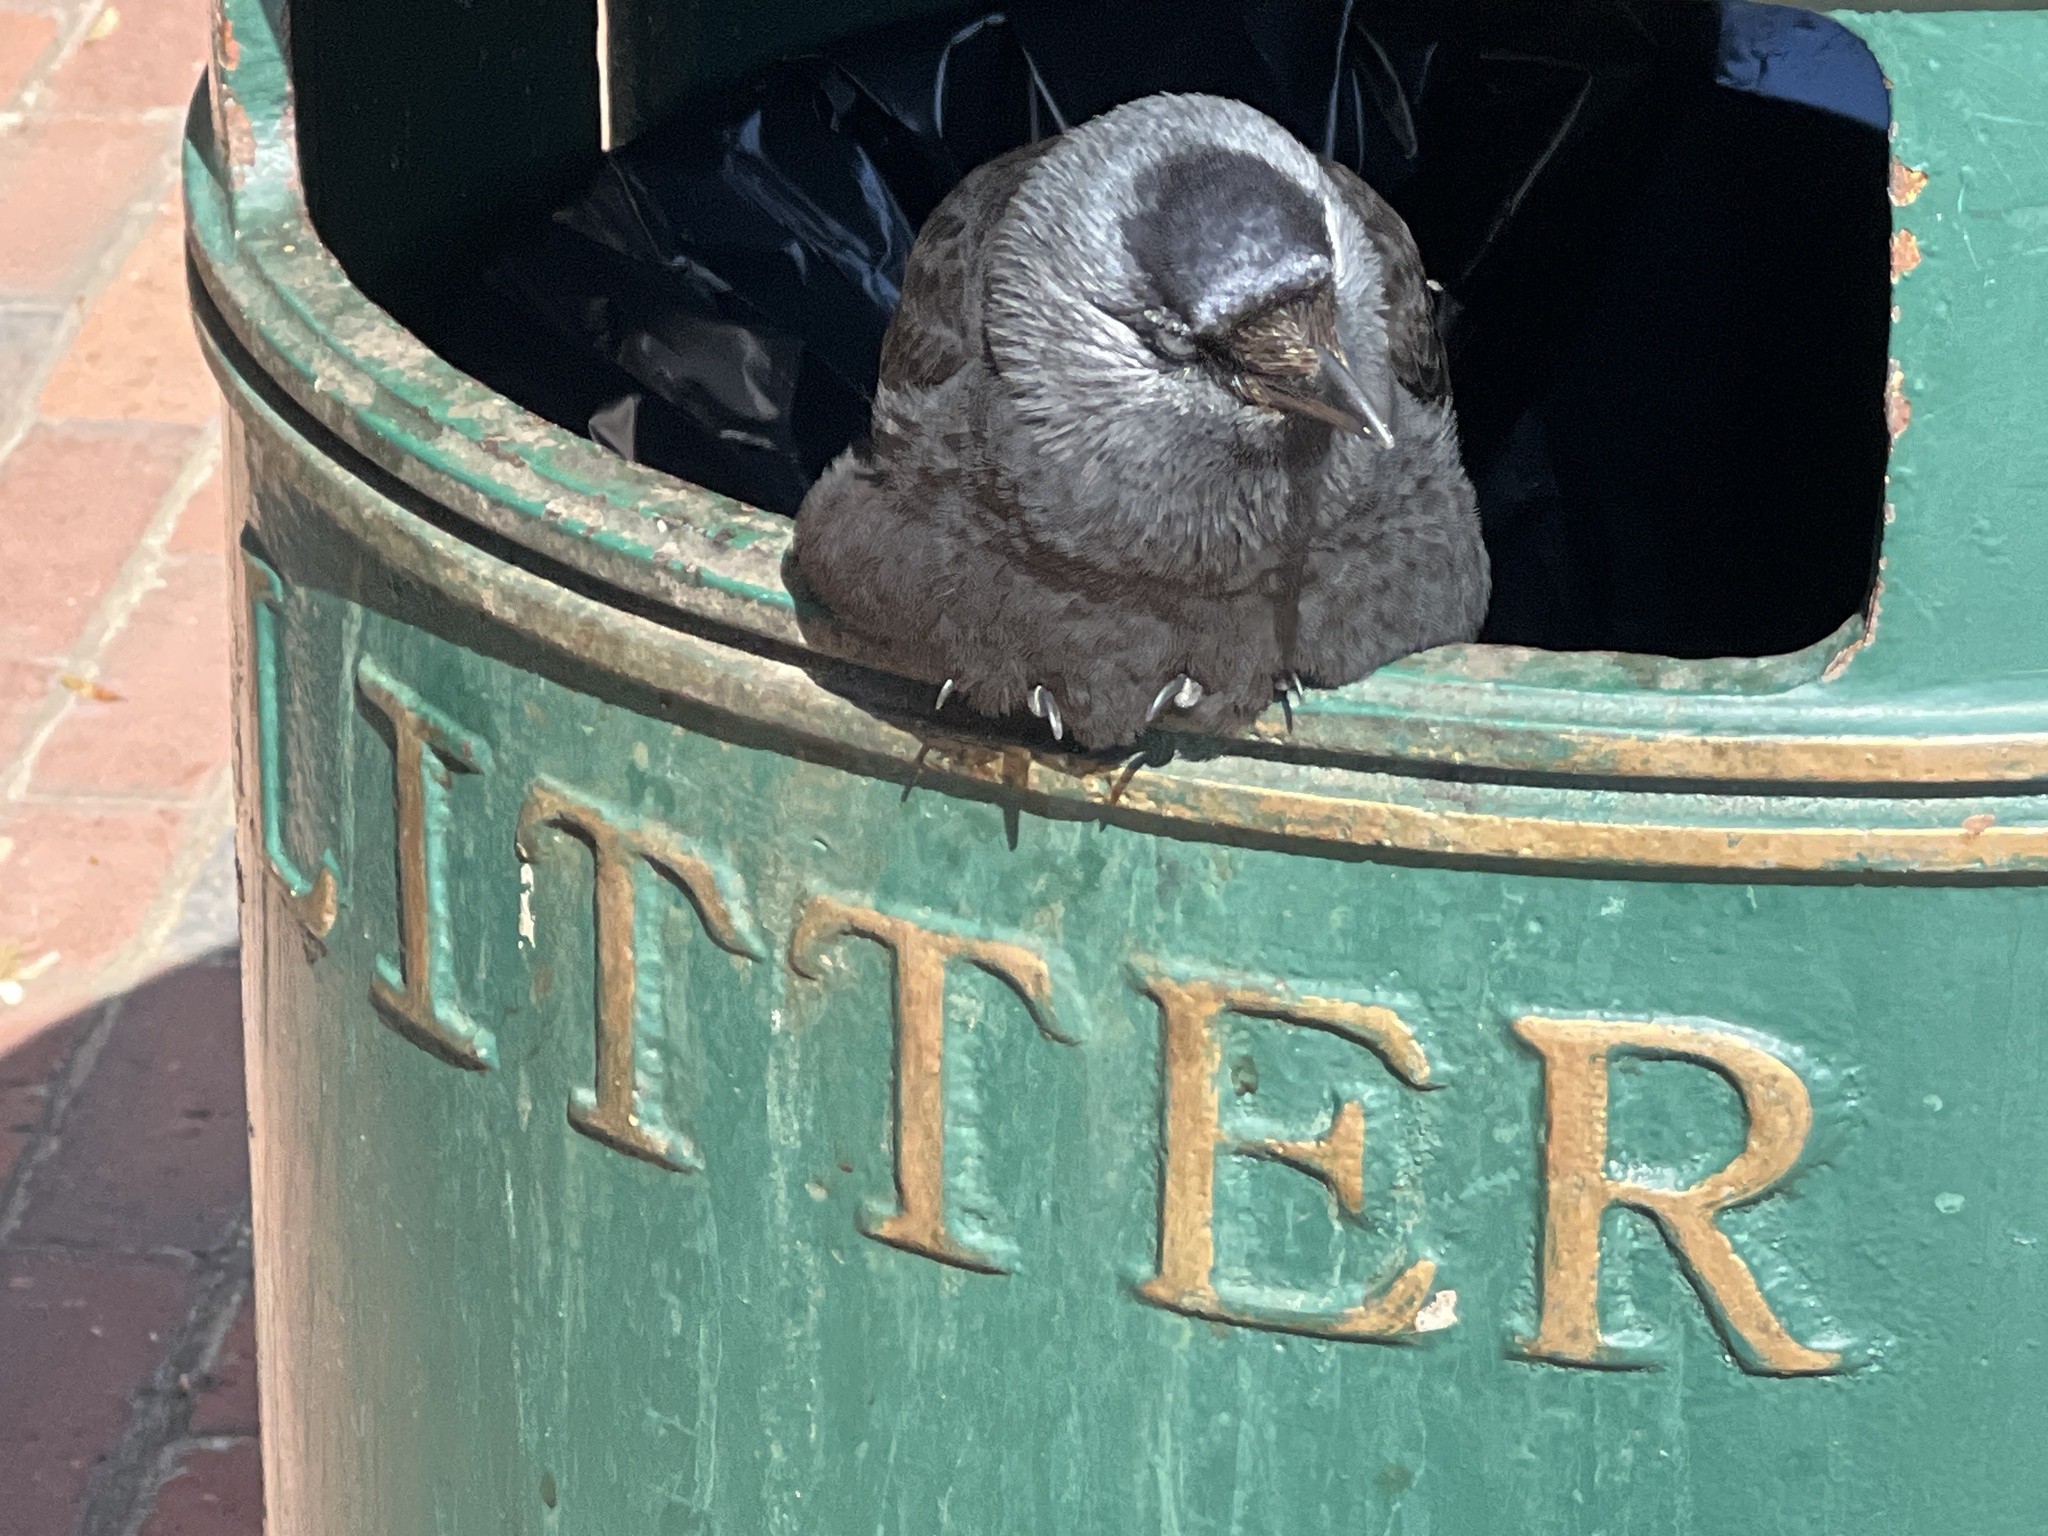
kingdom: Animalia
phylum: Chordata
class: Aves
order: Passeriformes
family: Corvidae
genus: Coloeus
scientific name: Coloeus monedula
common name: Western jackdaw
